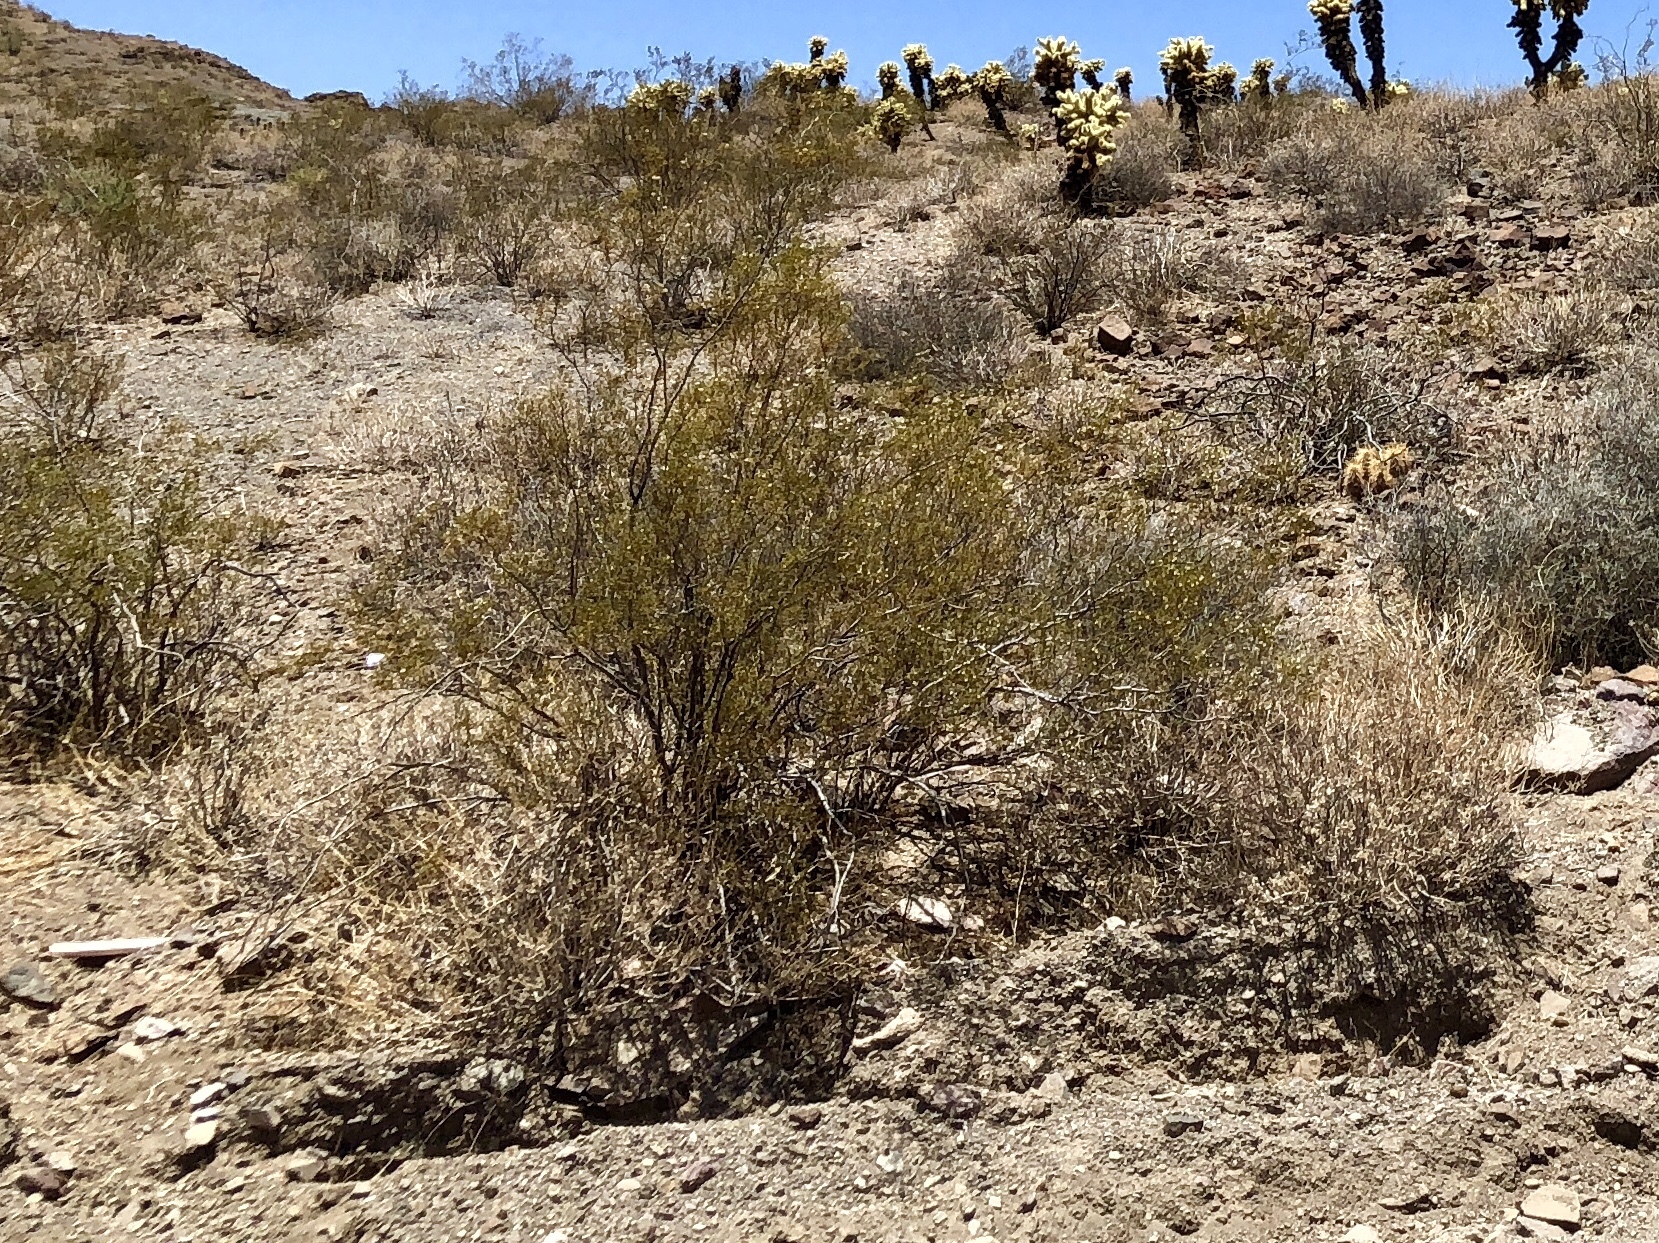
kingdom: Plantae
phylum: Tracheophyta
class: Magnoliopsida
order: Zygophyllales
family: Zygophyllaceae
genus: Larrea
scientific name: Larrea tridentata
